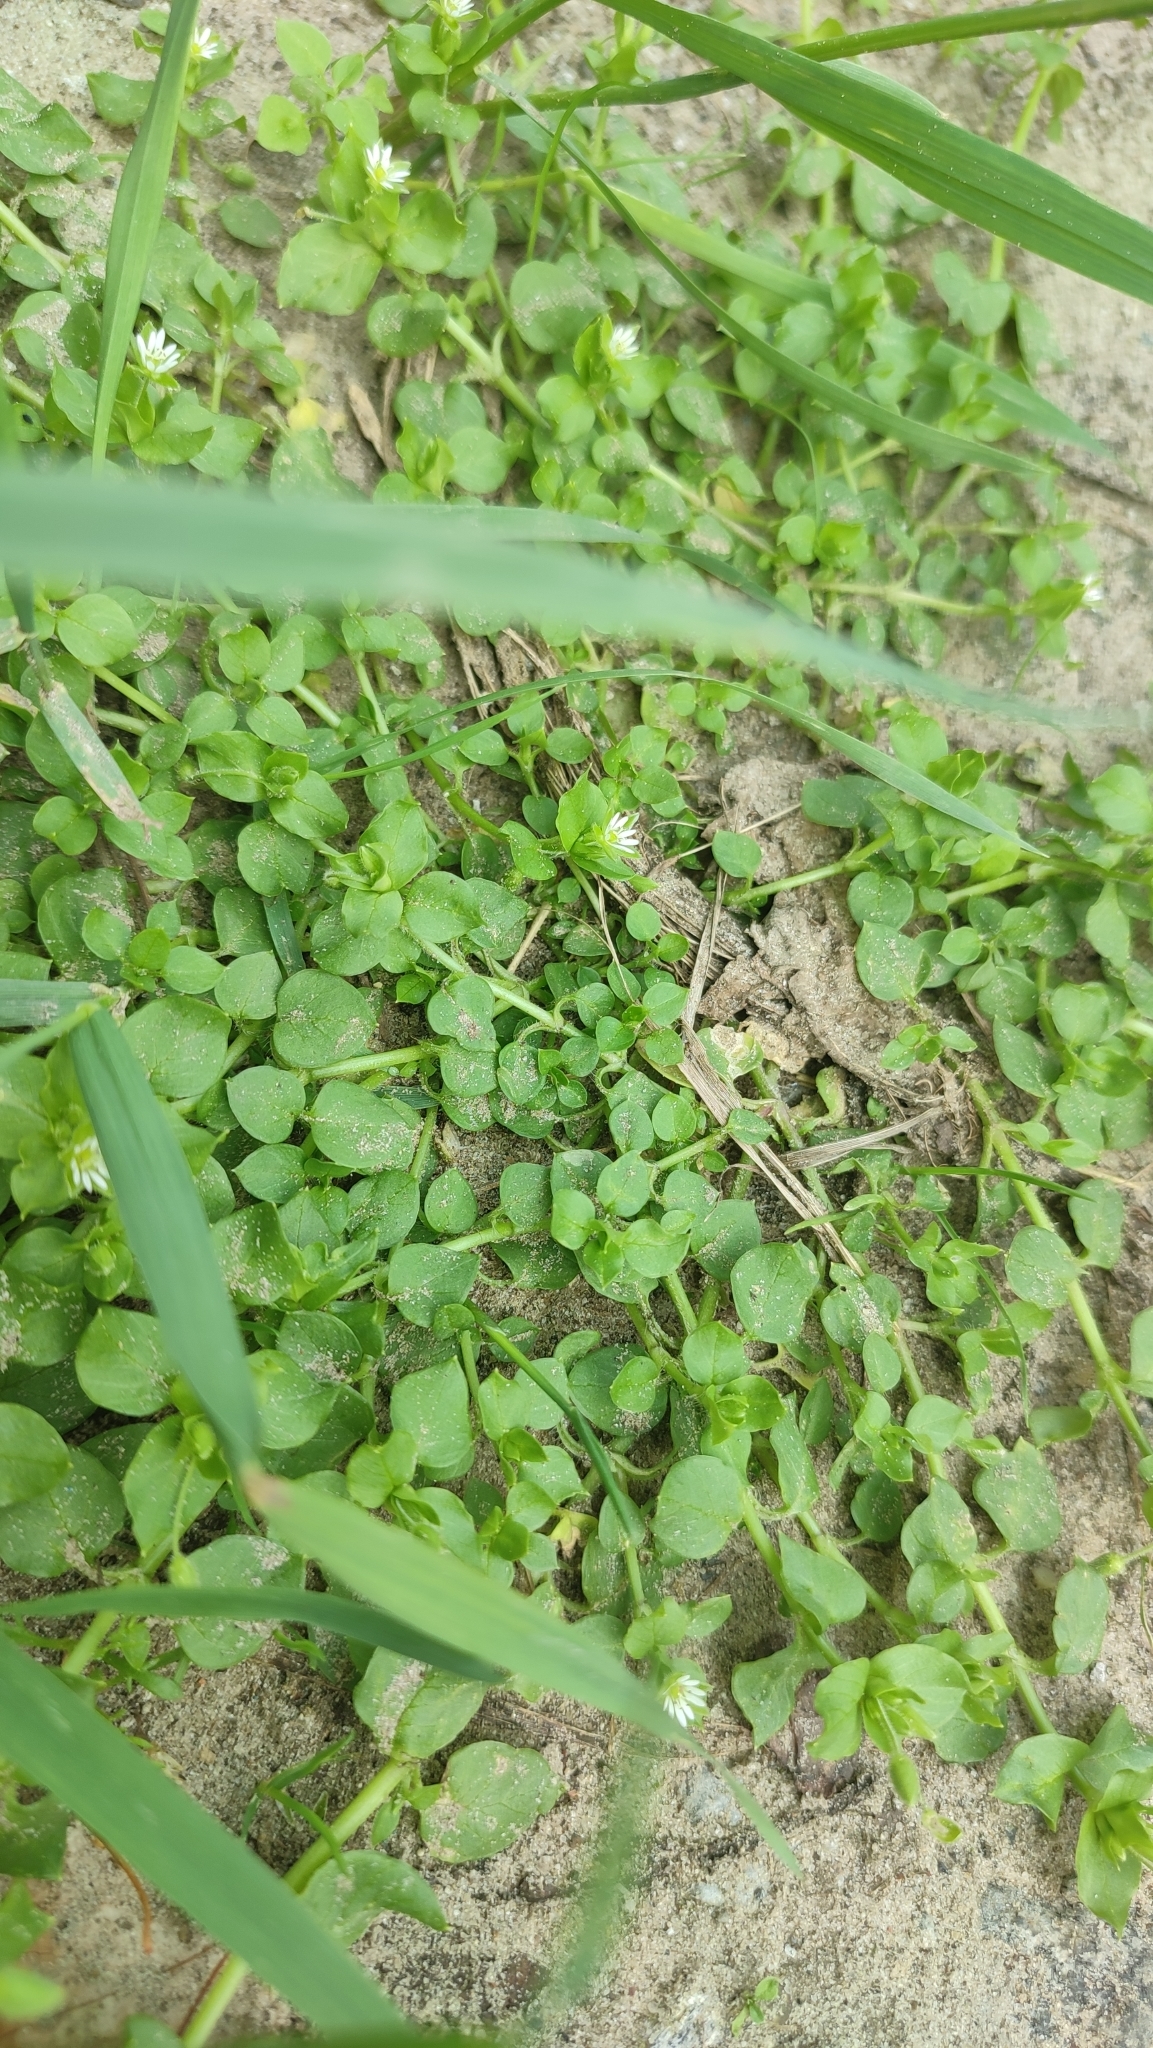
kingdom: Plantae
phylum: Tracheophyta
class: Magnoliopsida
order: Caryophyllales
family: Caryophyllaceae
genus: Stellaria
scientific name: Stellaria media
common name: Common chickweed
